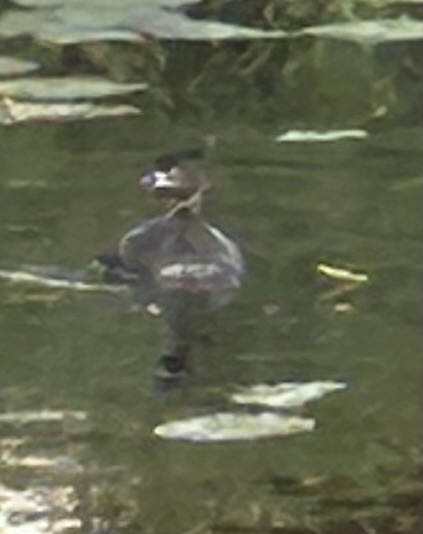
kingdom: Animalia
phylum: Chordata
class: Aves
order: Podicipediformes
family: Podicipedidae
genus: Podilymbus
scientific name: Podilymbus podiceps
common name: Pied-billed grebe
